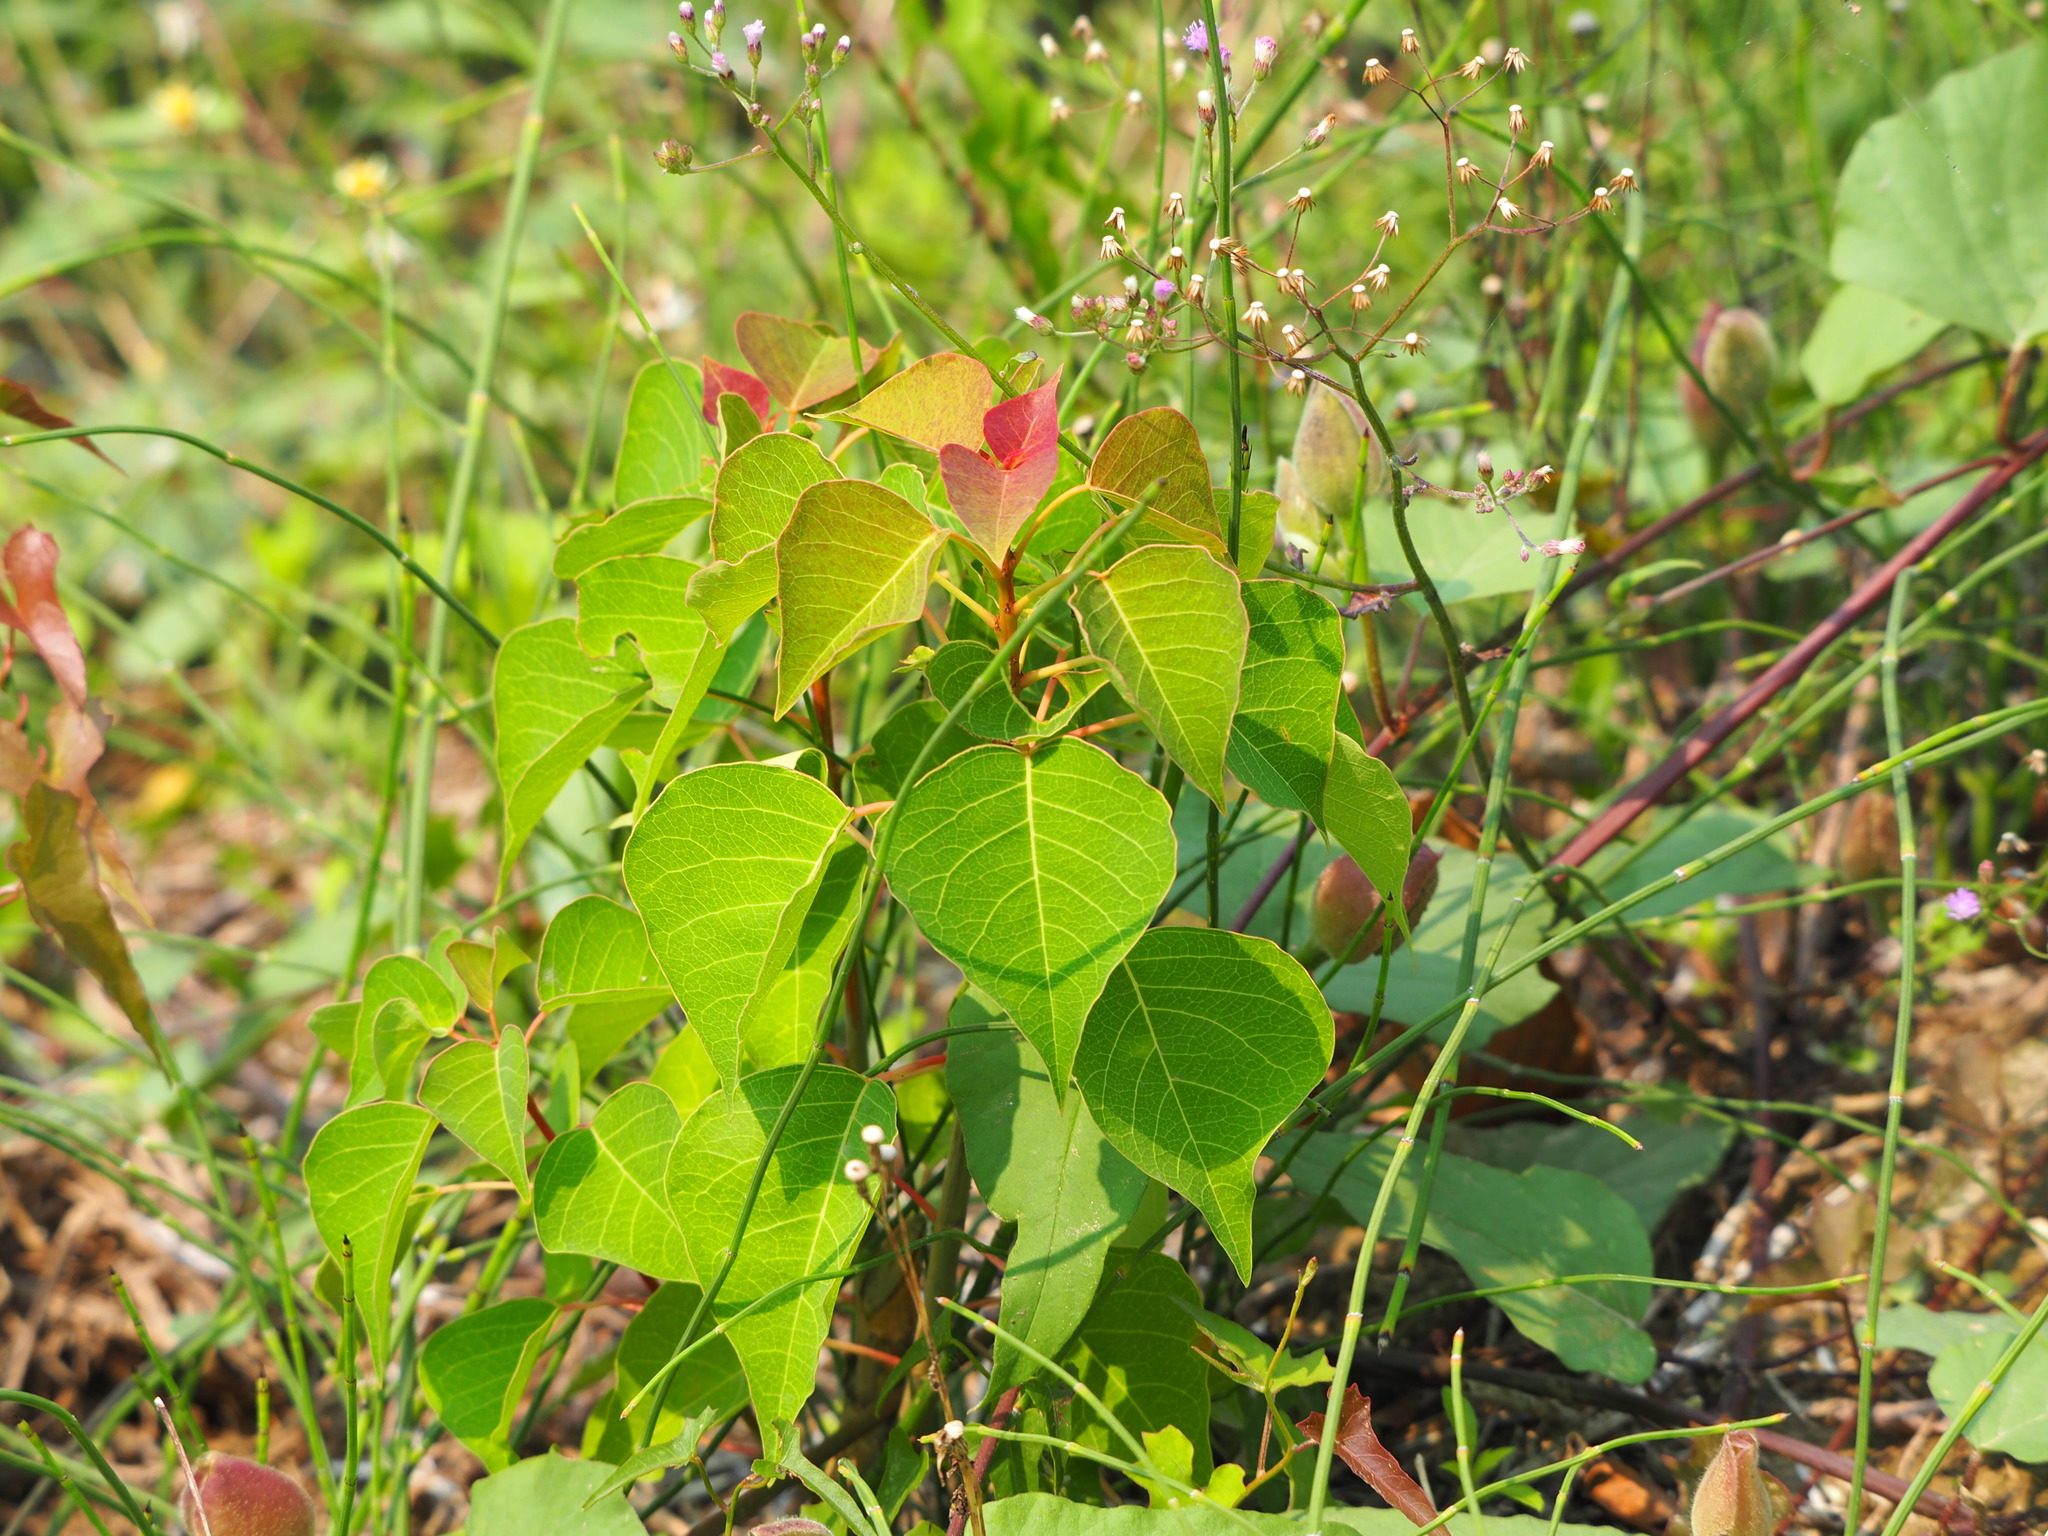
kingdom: Plantae
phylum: Tracheophyta
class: Magnoliopsida
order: Malpighiales
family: Euphorbiaceae
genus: Triadica
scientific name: Triadica sebifera
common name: Chinese tallow
